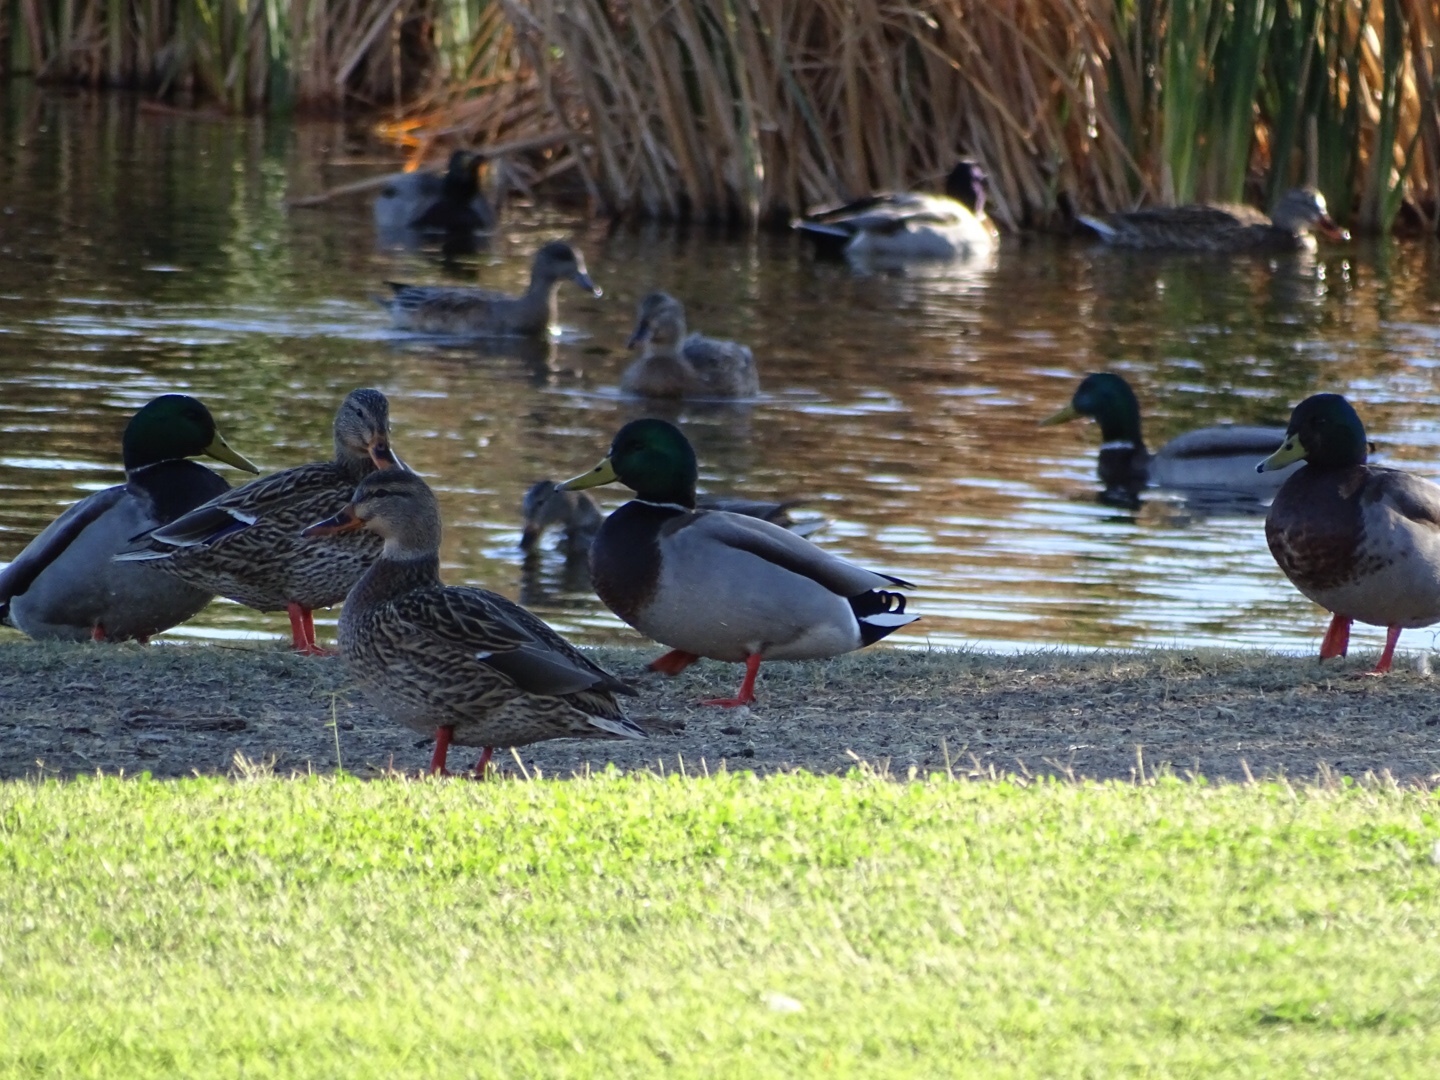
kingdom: Animalia
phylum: Chordata
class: Aves
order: Anseriformes
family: Anatidae
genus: Anas
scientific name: Anas platyrhynchos
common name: Mallard
